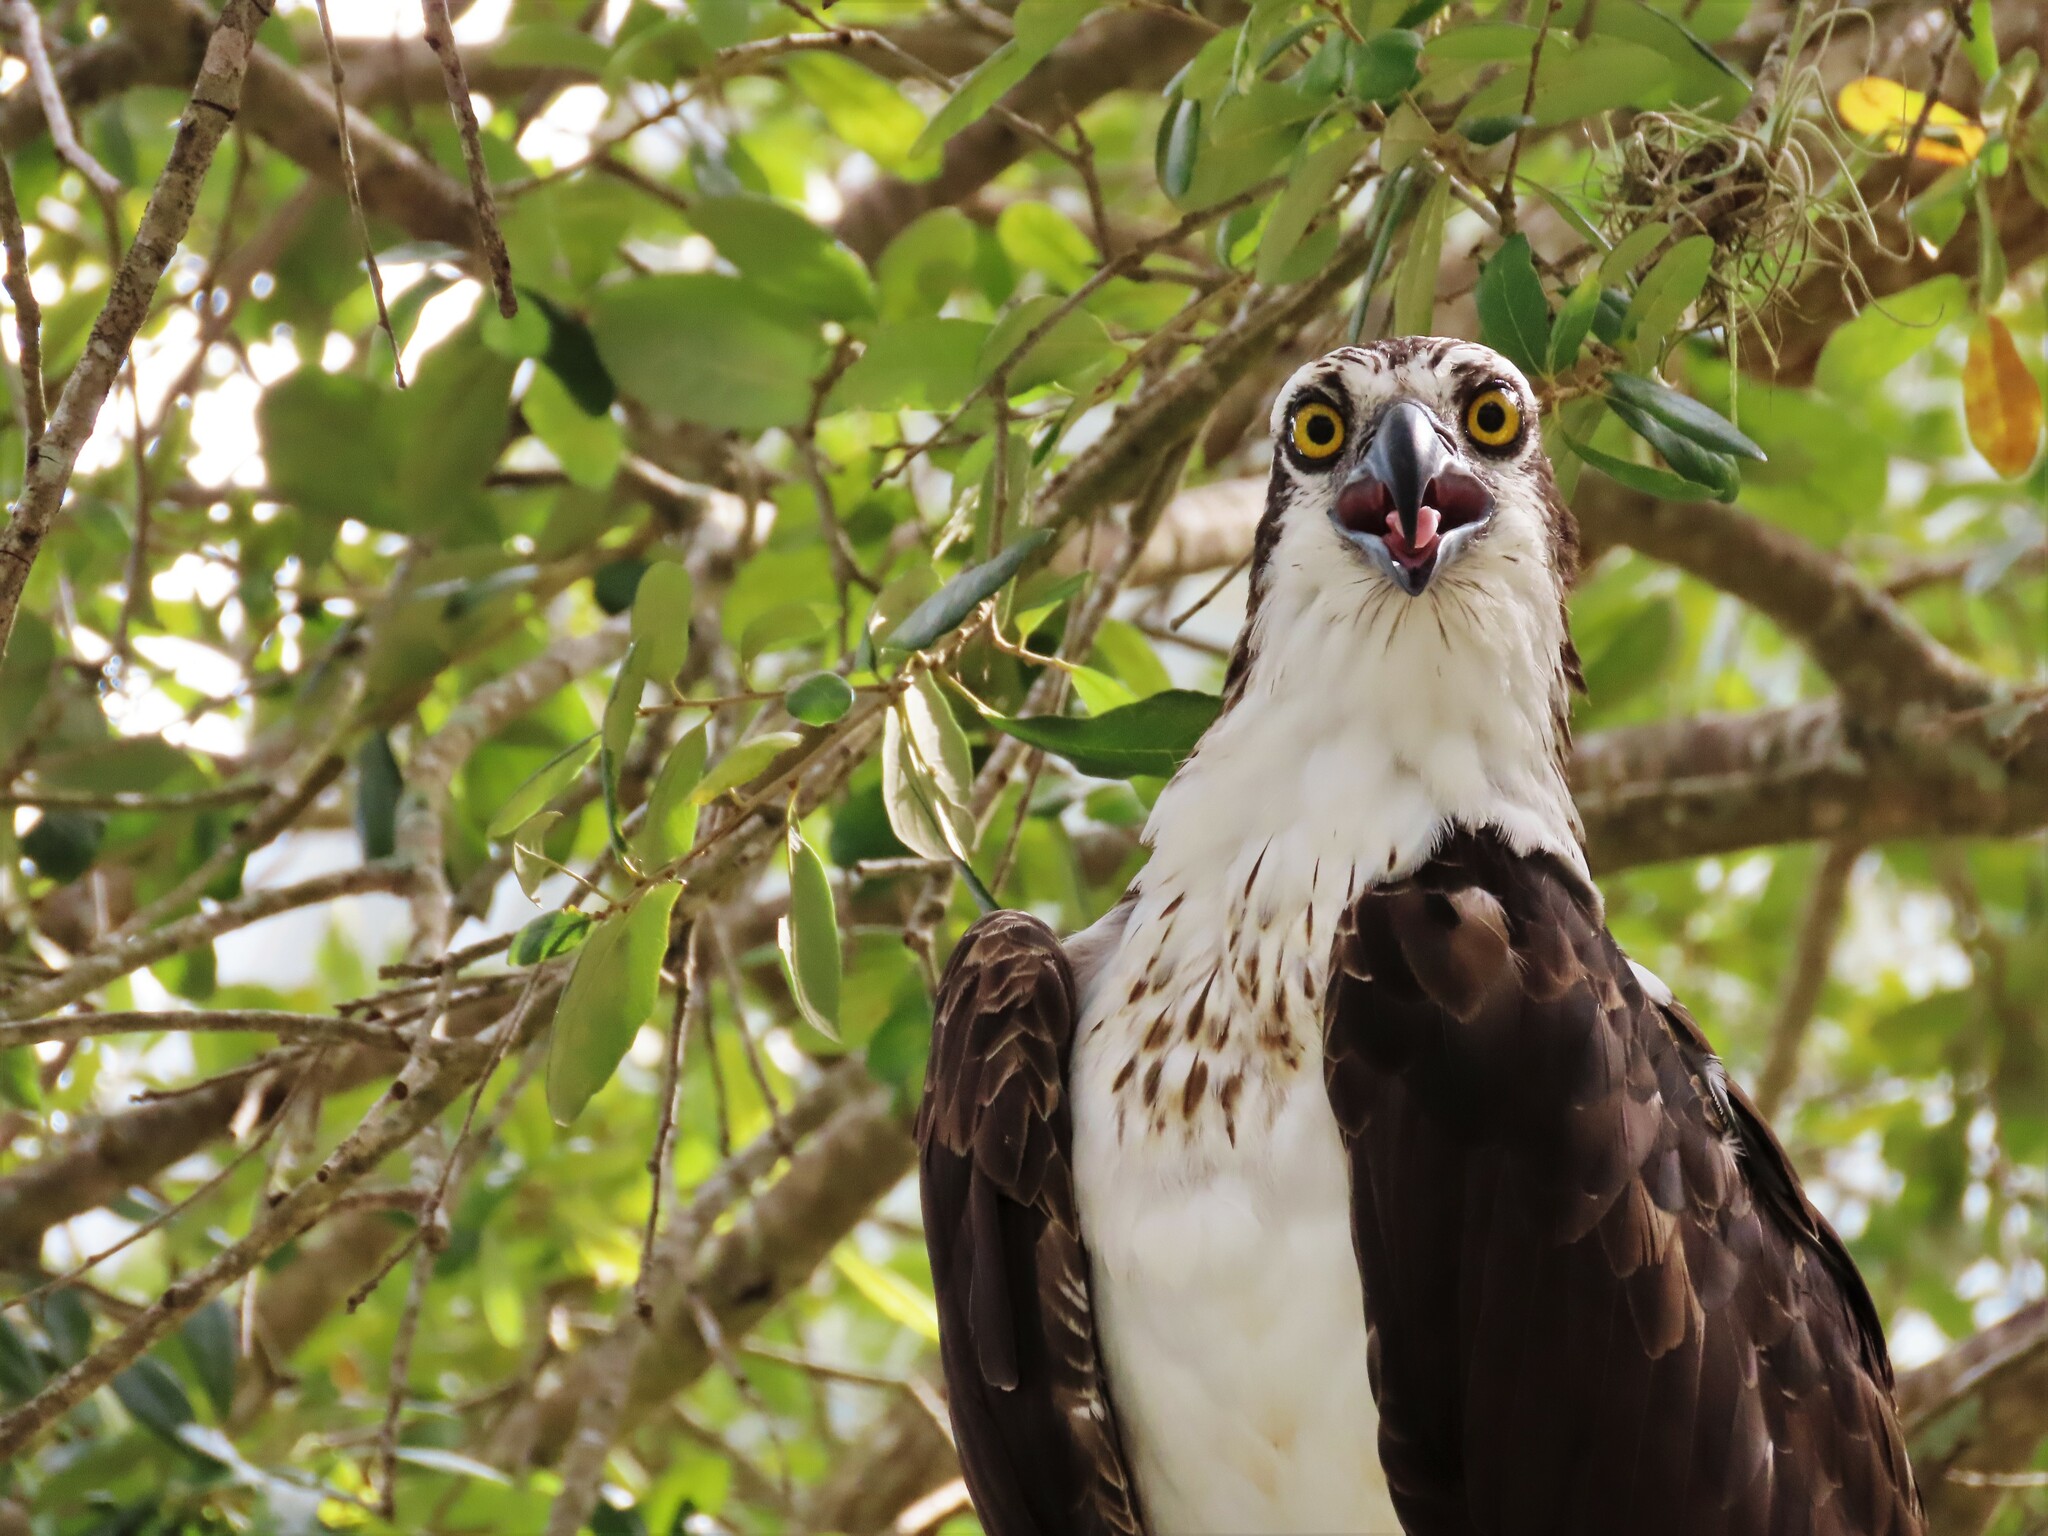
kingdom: Animalia
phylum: Chordata
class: Aves
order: Accipitriformes
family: Pandionidae
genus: Pandion
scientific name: Pandion haliaetus
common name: Osprey
